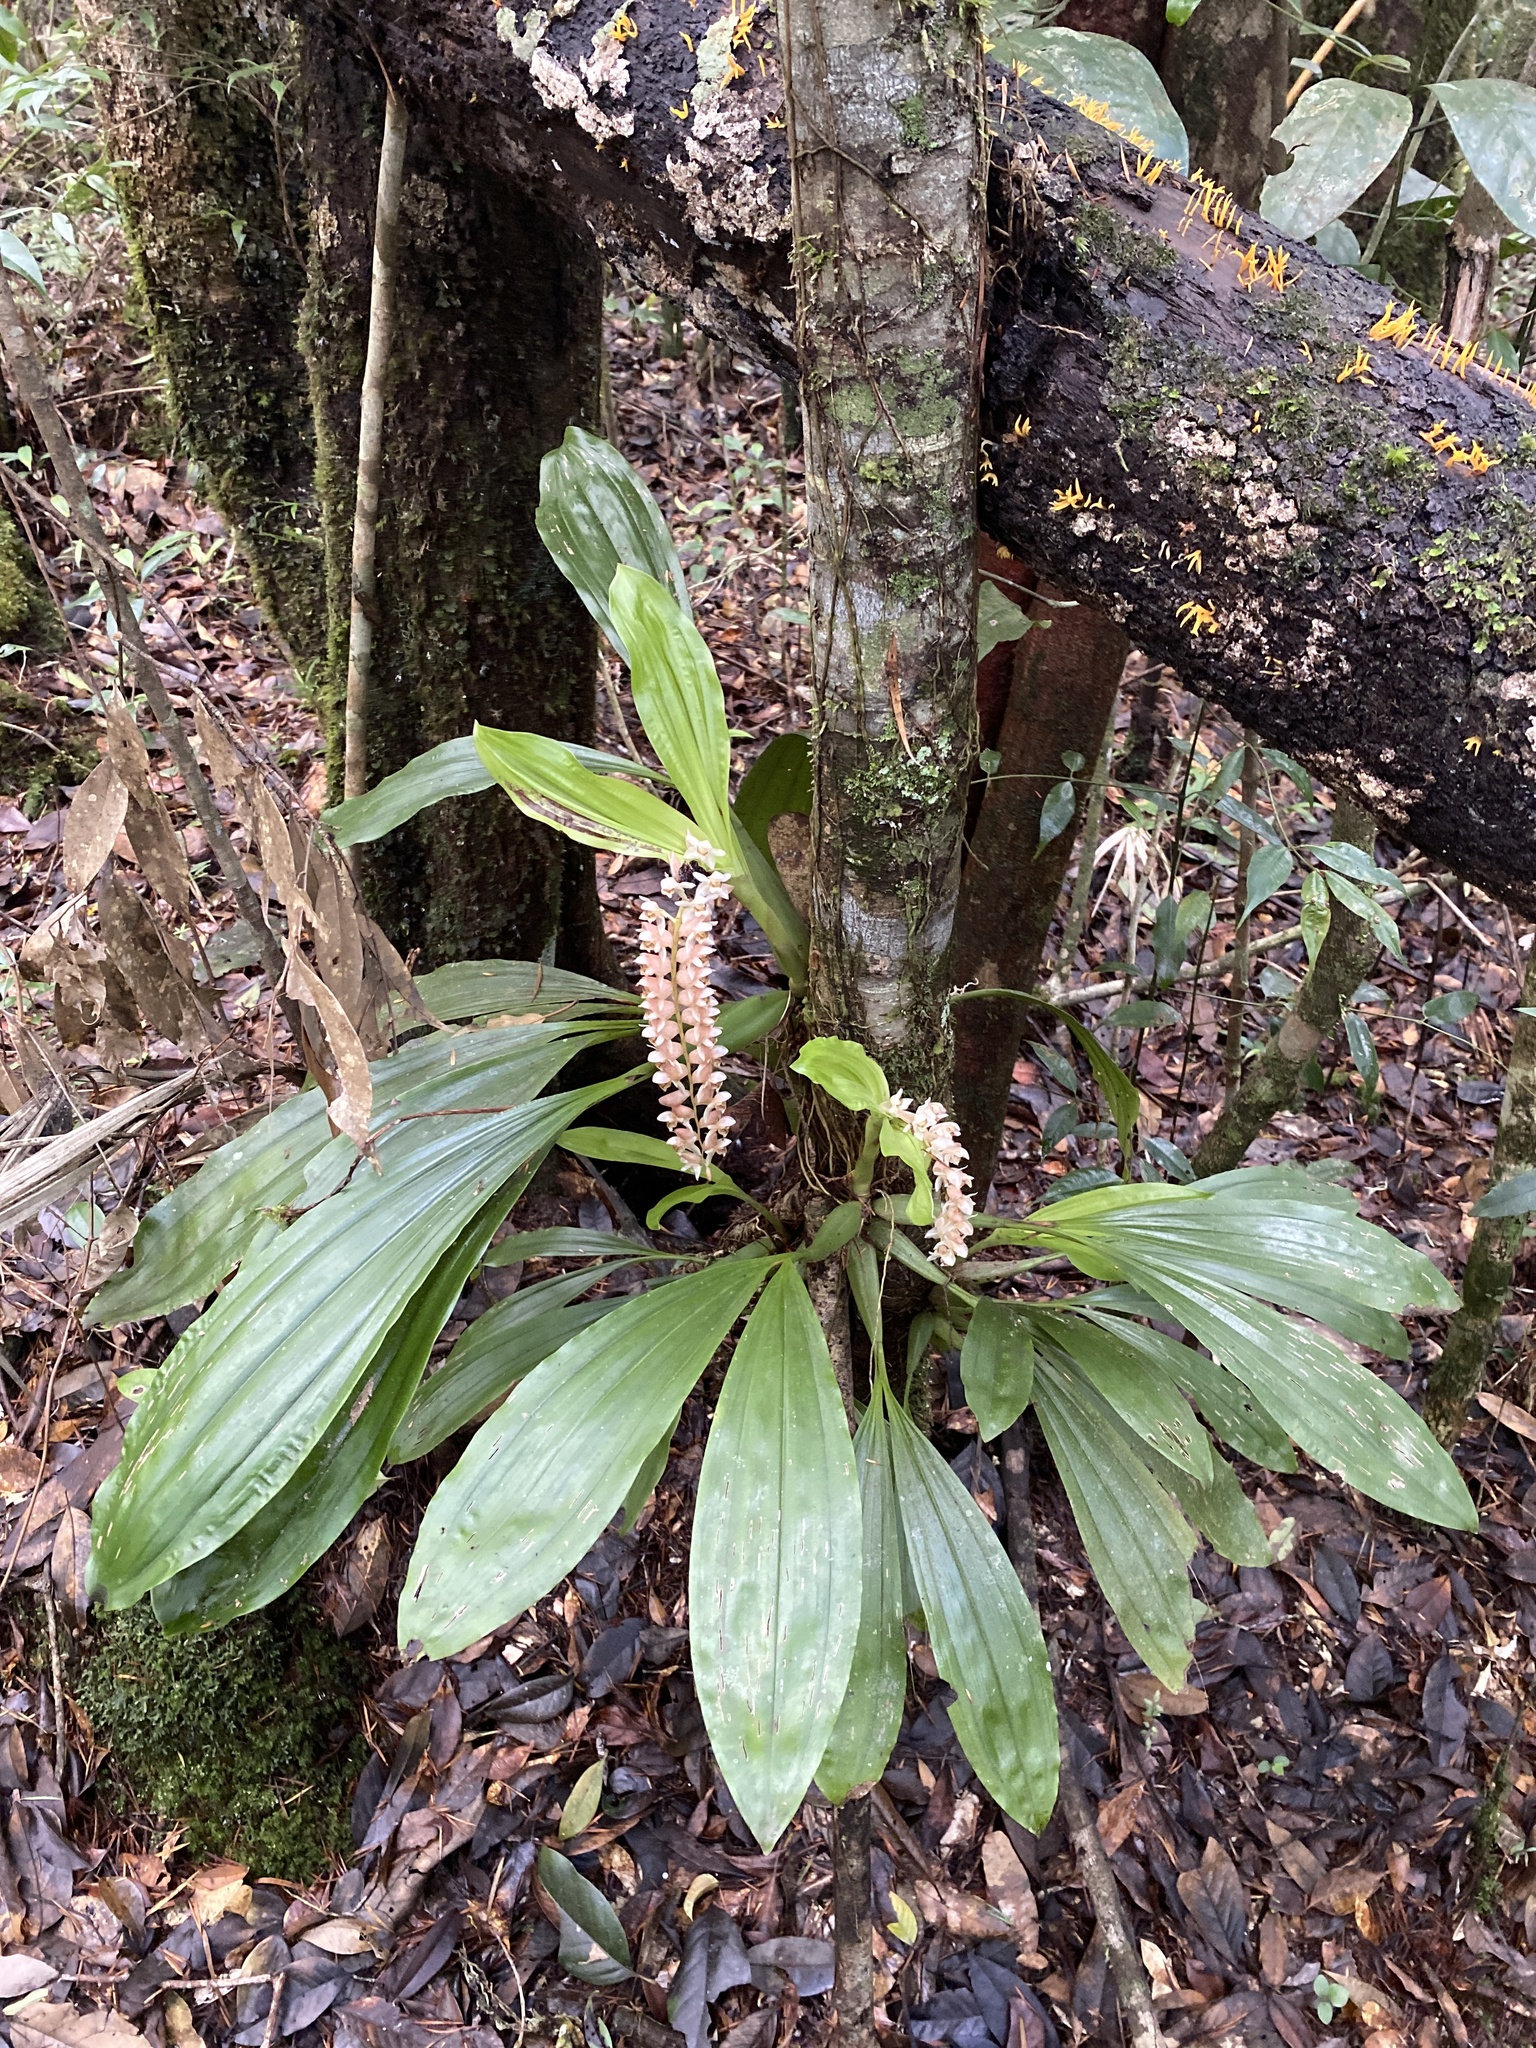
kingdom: Plantae
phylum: Tracheophyta
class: Liliopsida
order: Asparagales
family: Orchidaceae
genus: Coelogyne
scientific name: Coelogyne chinensis
